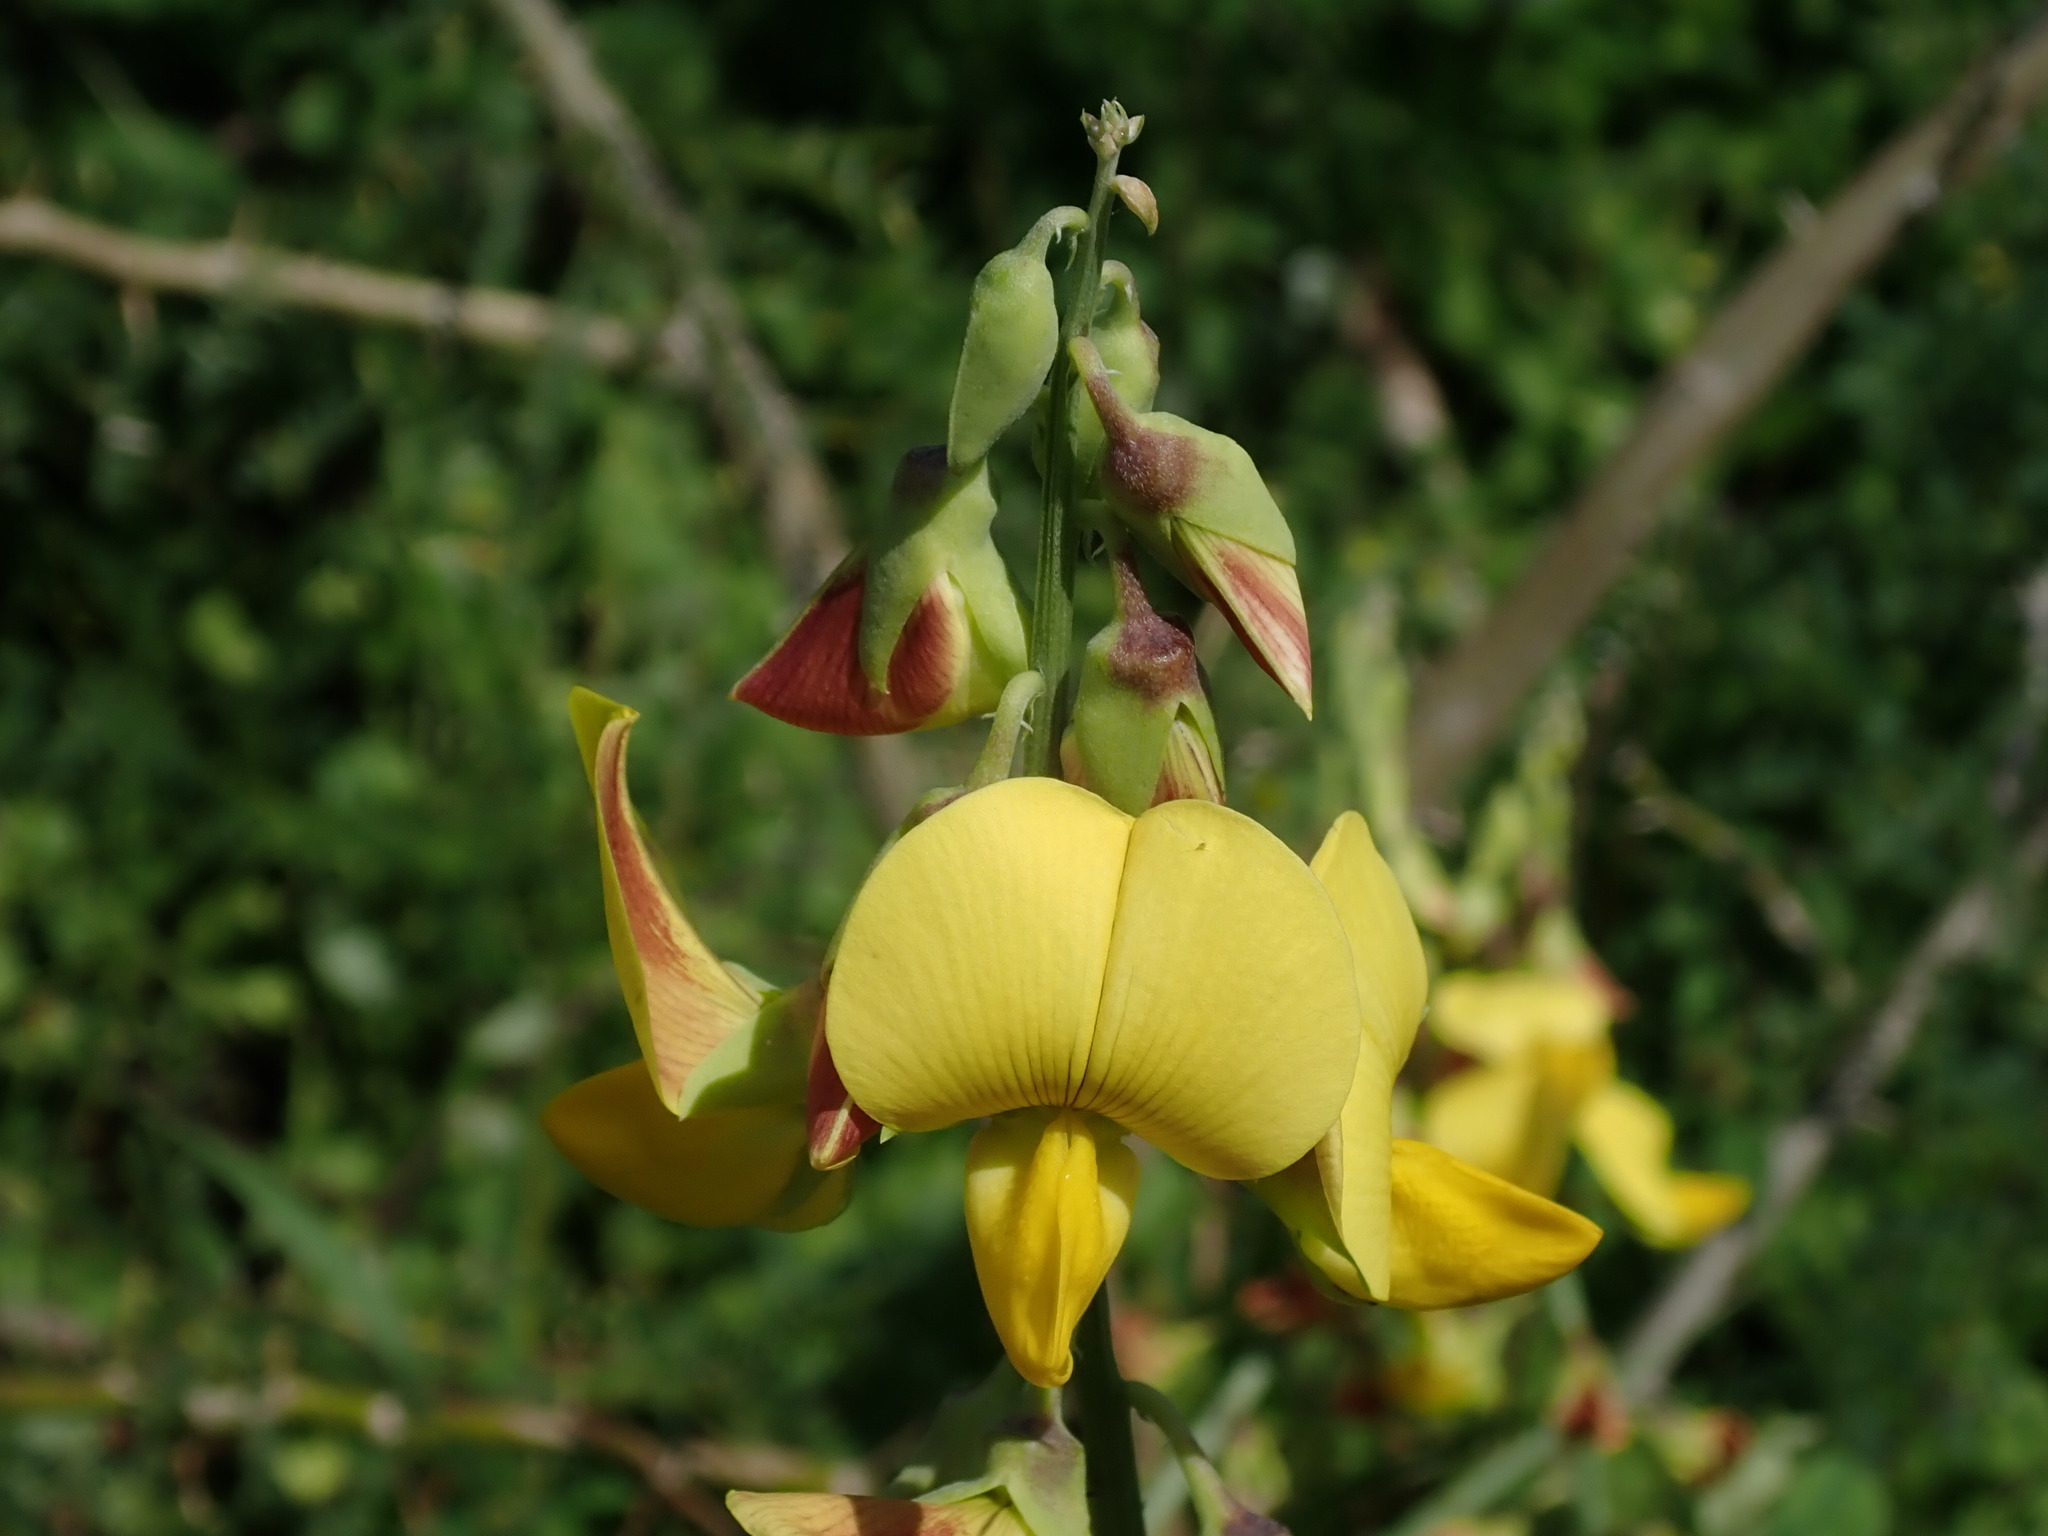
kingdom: Plantae
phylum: Tracheophyta
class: Magnoliopsida
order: Fabales
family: Fabaceae
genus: Crotalaria
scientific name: Crotalaria retusa
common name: Rattleweed
